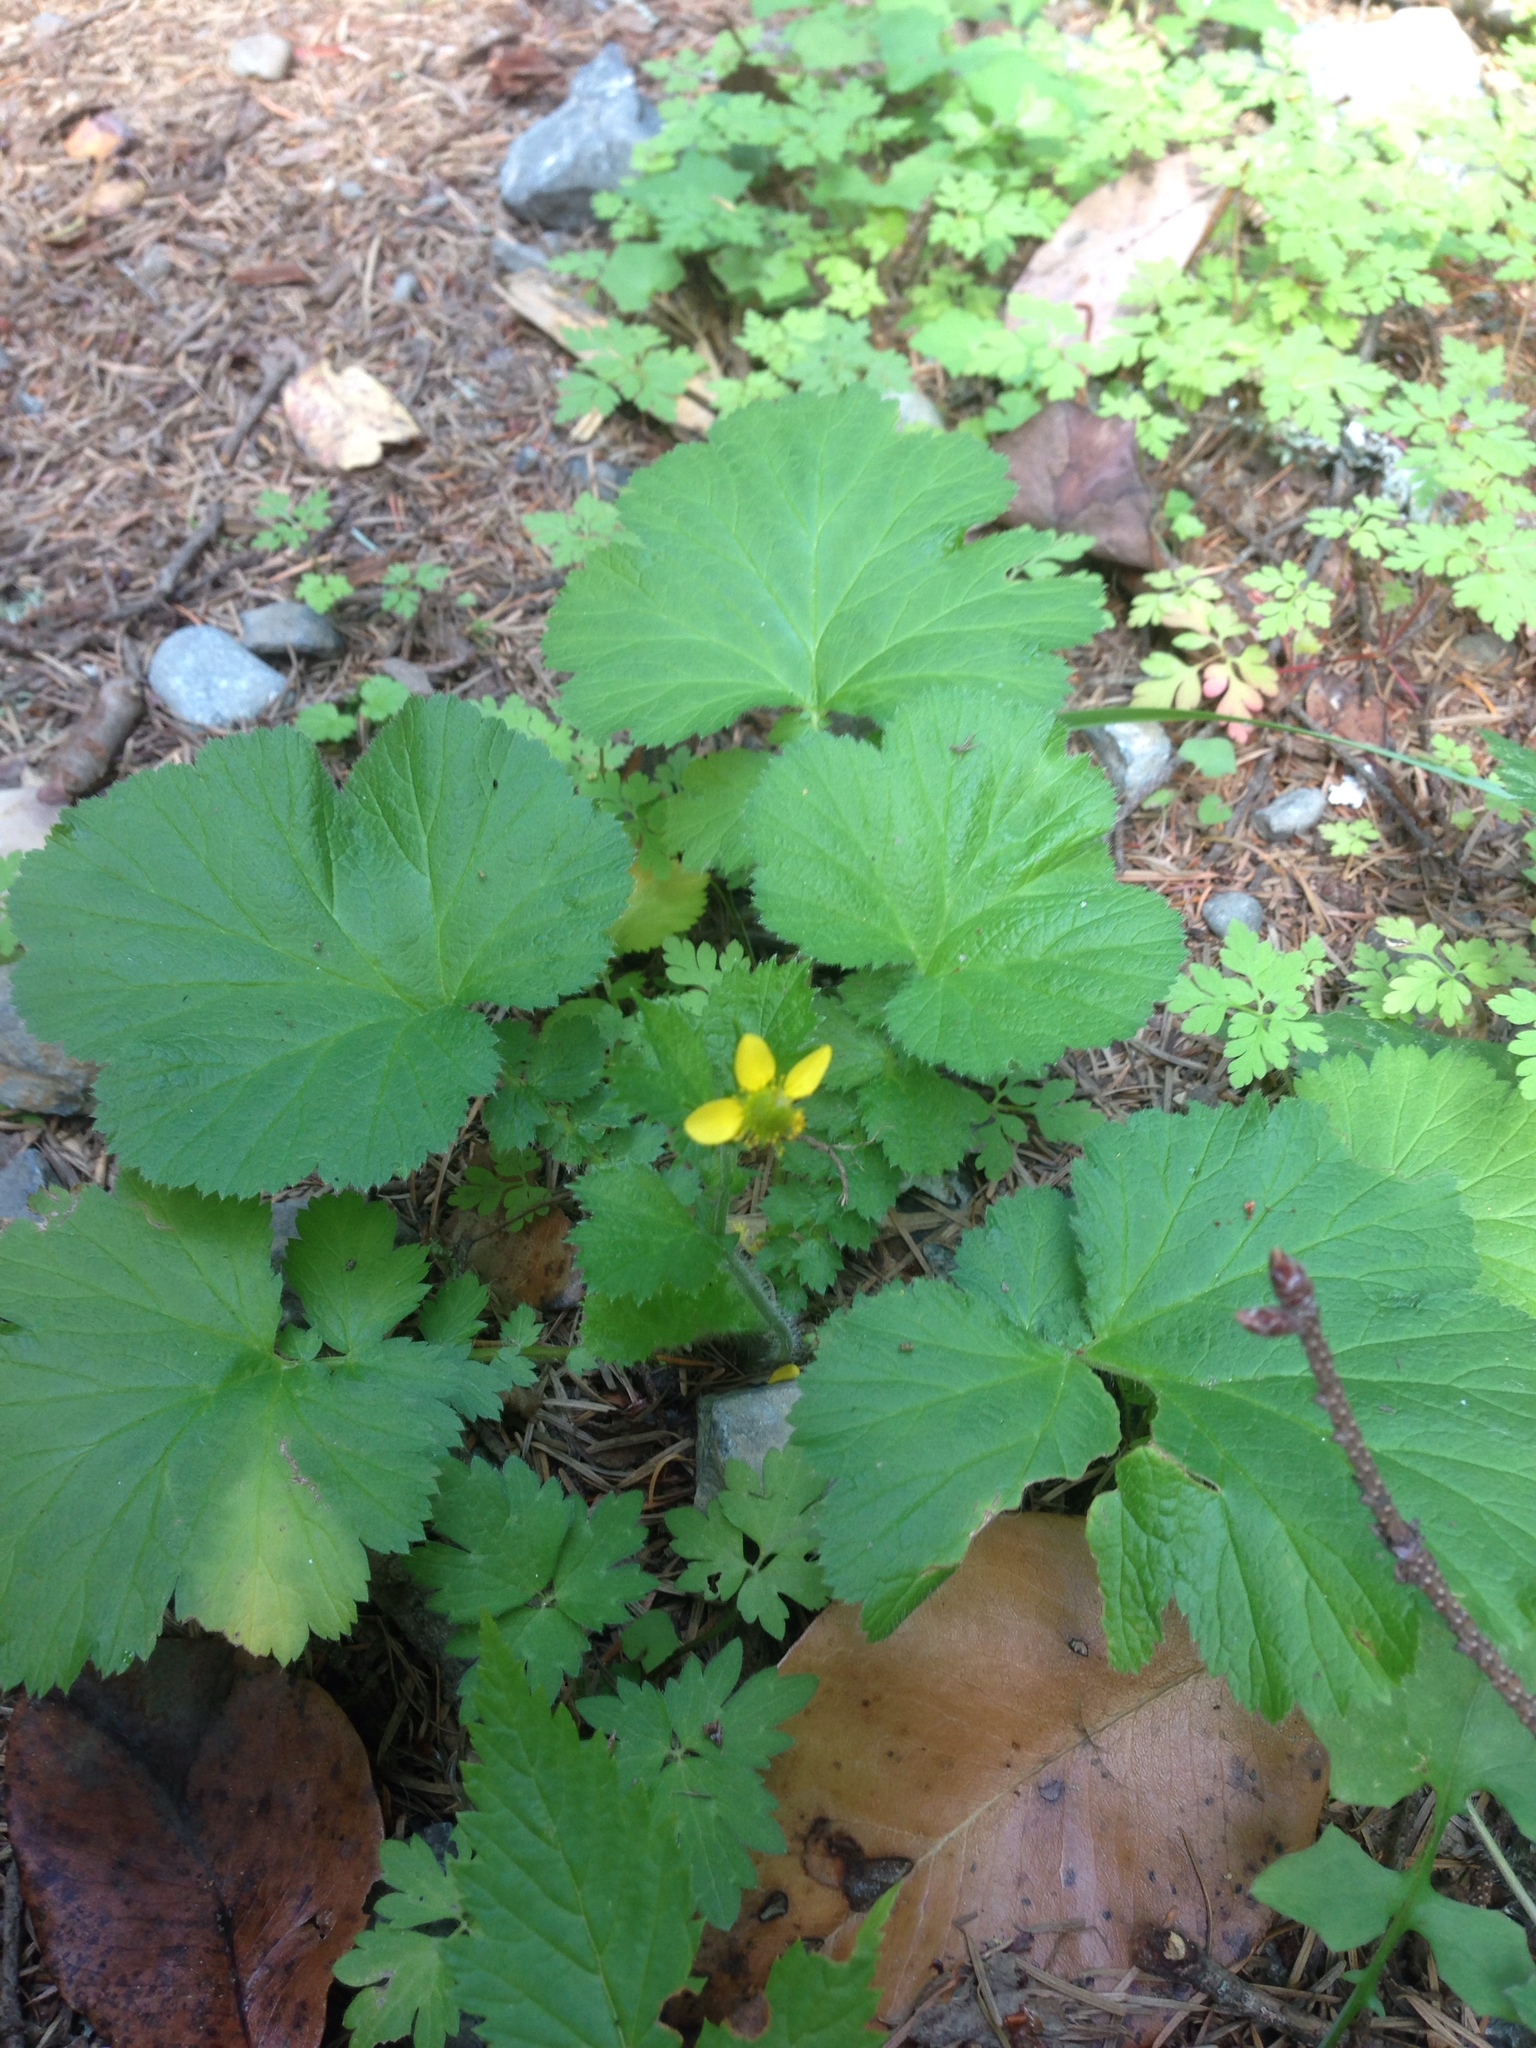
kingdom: Plantae
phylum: Tracheophyta
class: Magnoliopsida
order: Rosales
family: Rosaceae
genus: Geum
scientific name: Geum macrophyllum
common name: Large-leaved avens
